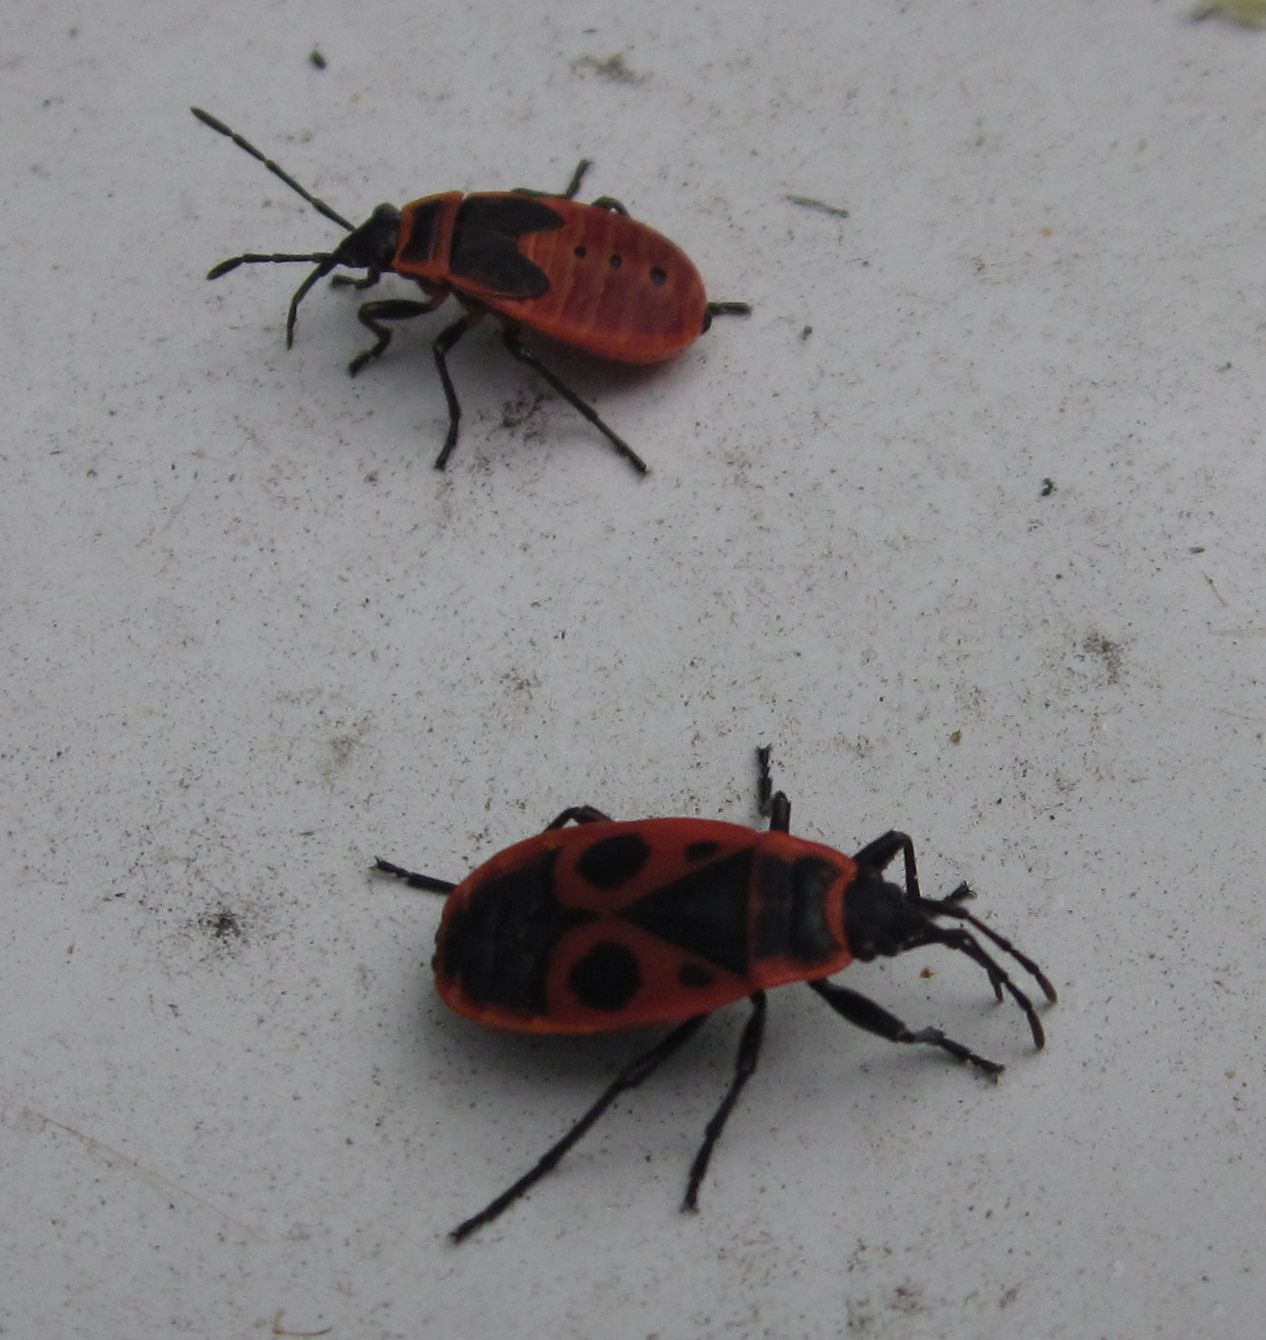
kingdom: Animalia
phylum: Arthropoda
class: Insecta
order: Hemiptera
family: Pyrrhocoridae
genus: Pyrrhocoris
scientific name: Pyrrhocoris apterus
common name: Firebug
